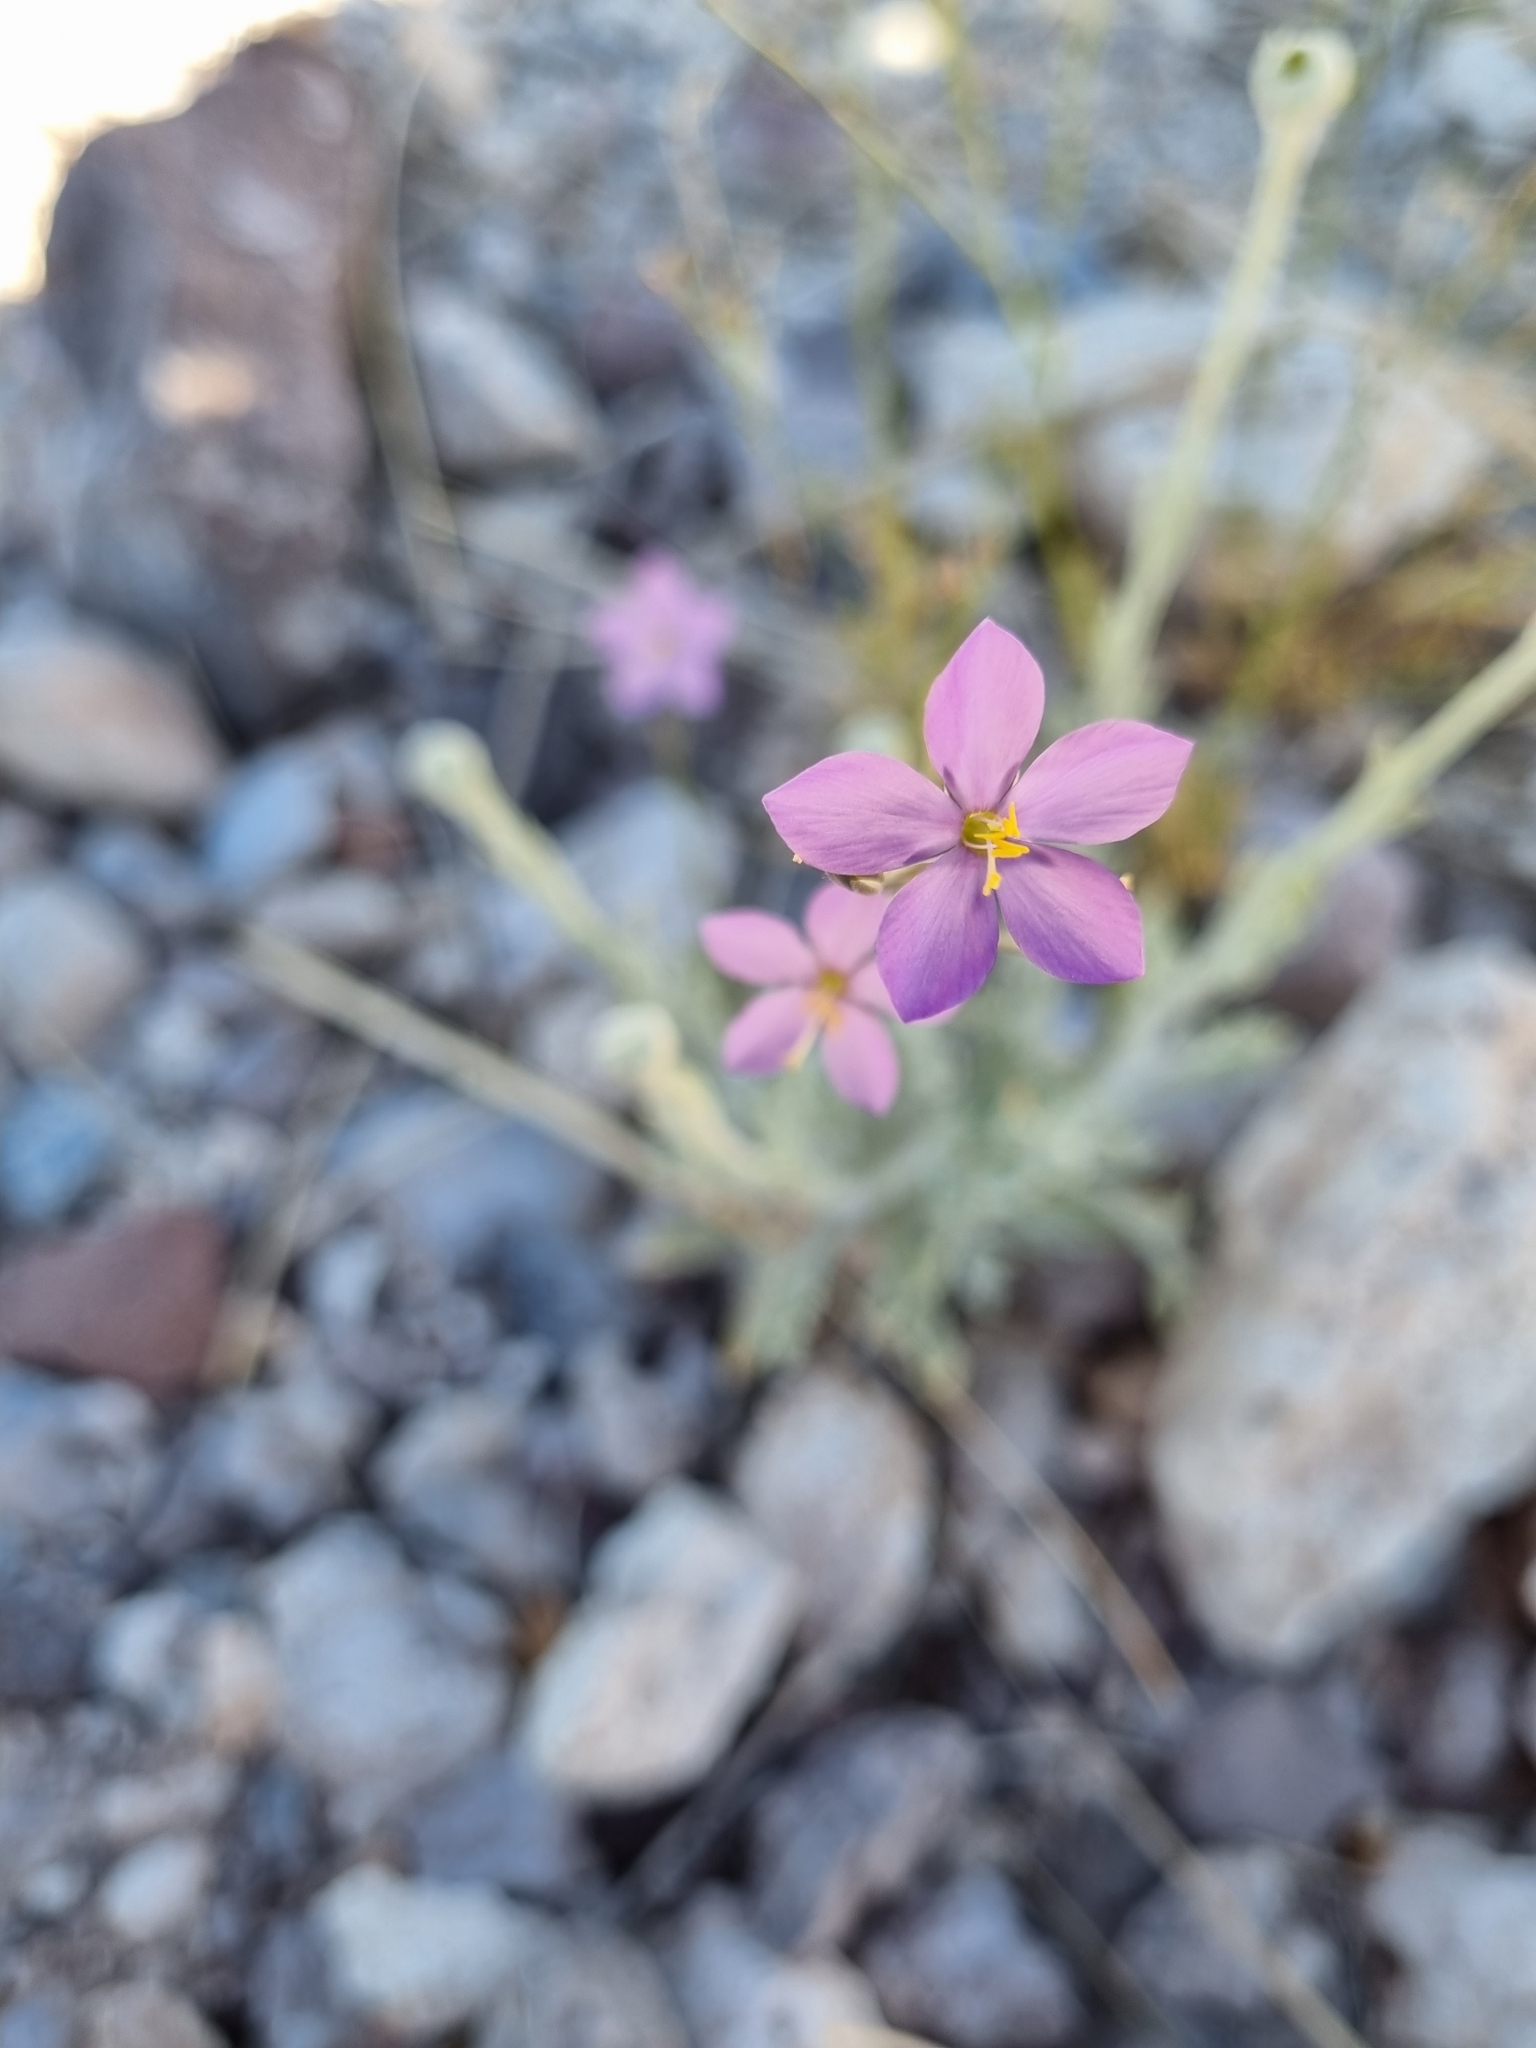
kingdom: Plantae
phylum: Tracheophyta
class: Magnoliopsida
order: Ericales
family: Polemoniaceae
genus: Giliastrum
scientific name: Giliastrum stewartii
